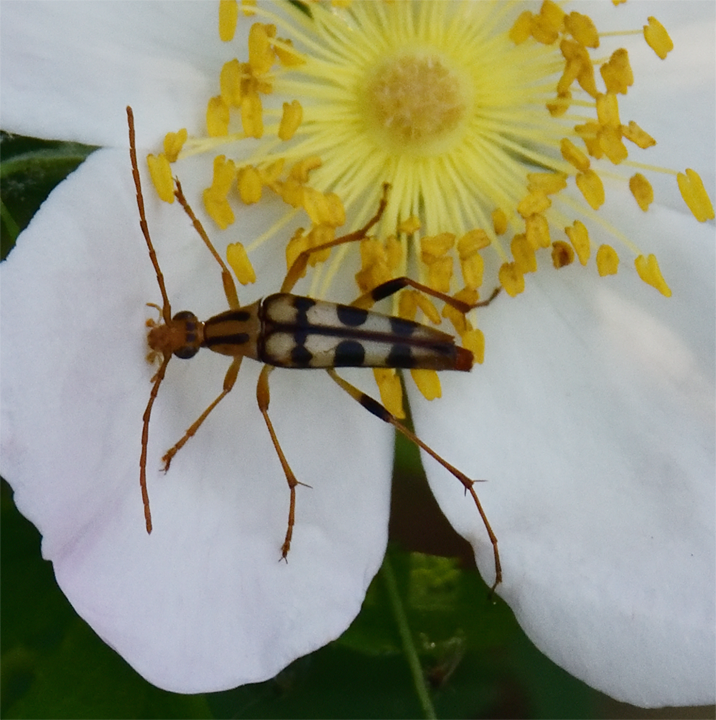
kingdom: Animalia
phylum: Arthropoda
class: Insecta
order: Coleoptera
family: Cerambycidae
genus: Strangalia
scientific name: Strangalia luteicornis
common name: Yellow-horned flower longhorn beetle
